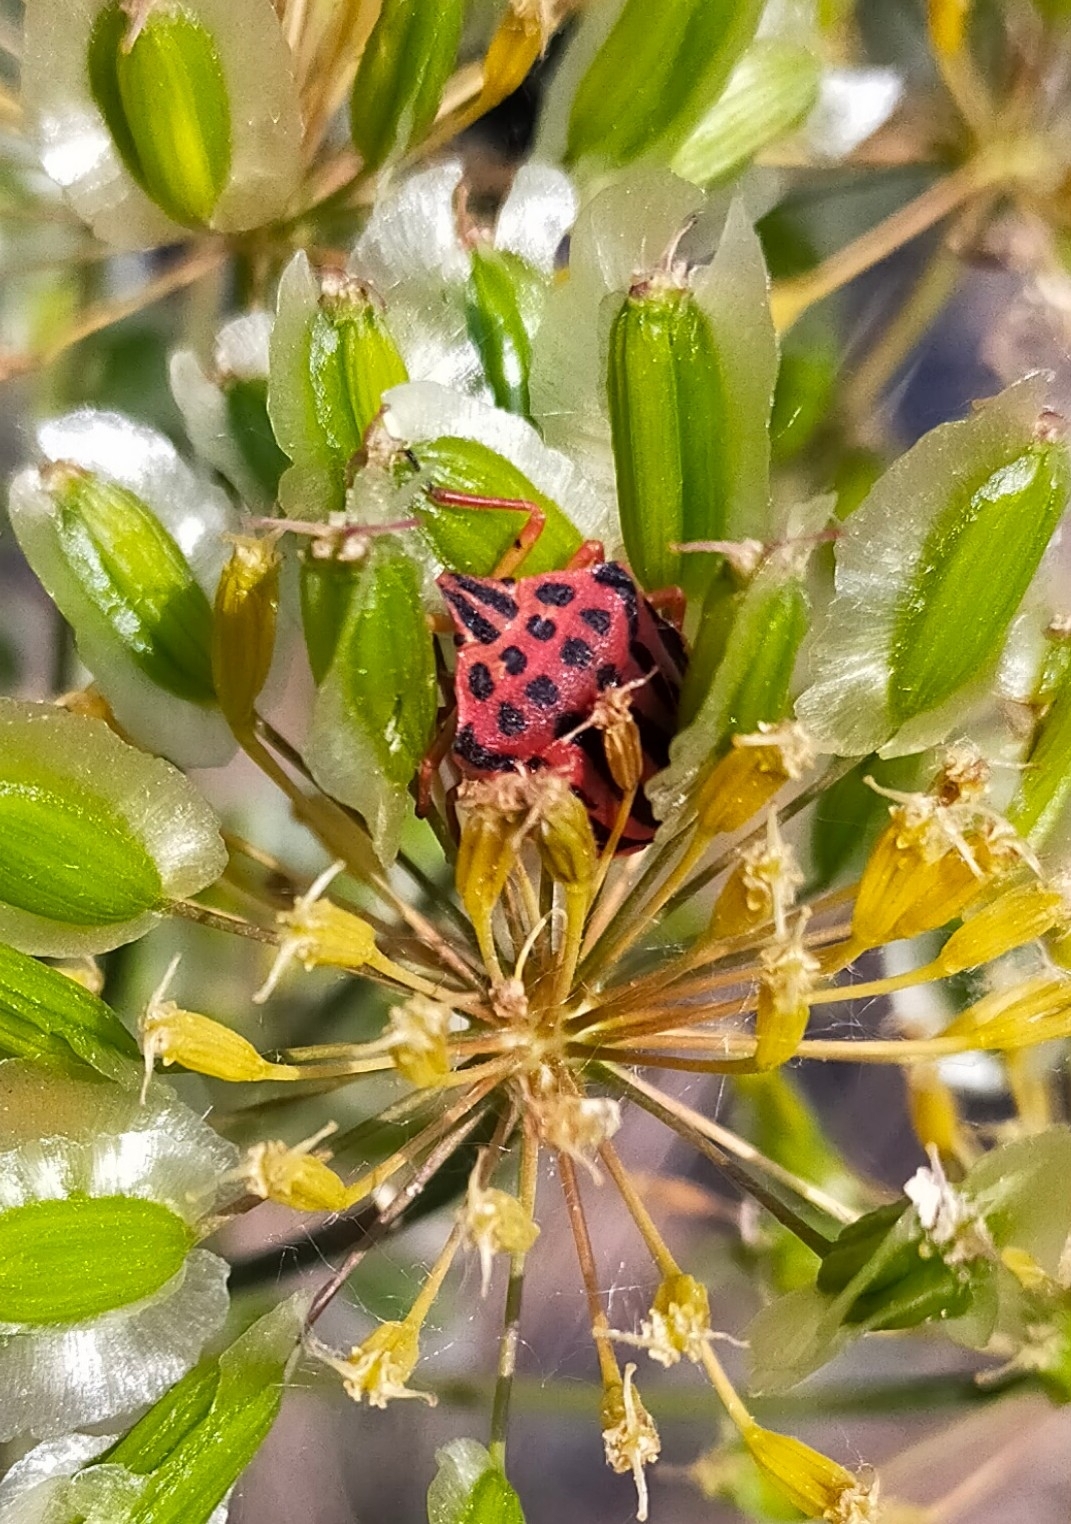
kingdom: Animalia
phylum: Arthropoda
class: Insecta
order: Hemiptera
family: Pentatomidae
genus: Graphosoma
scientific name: Graphosoma semipunctatum
